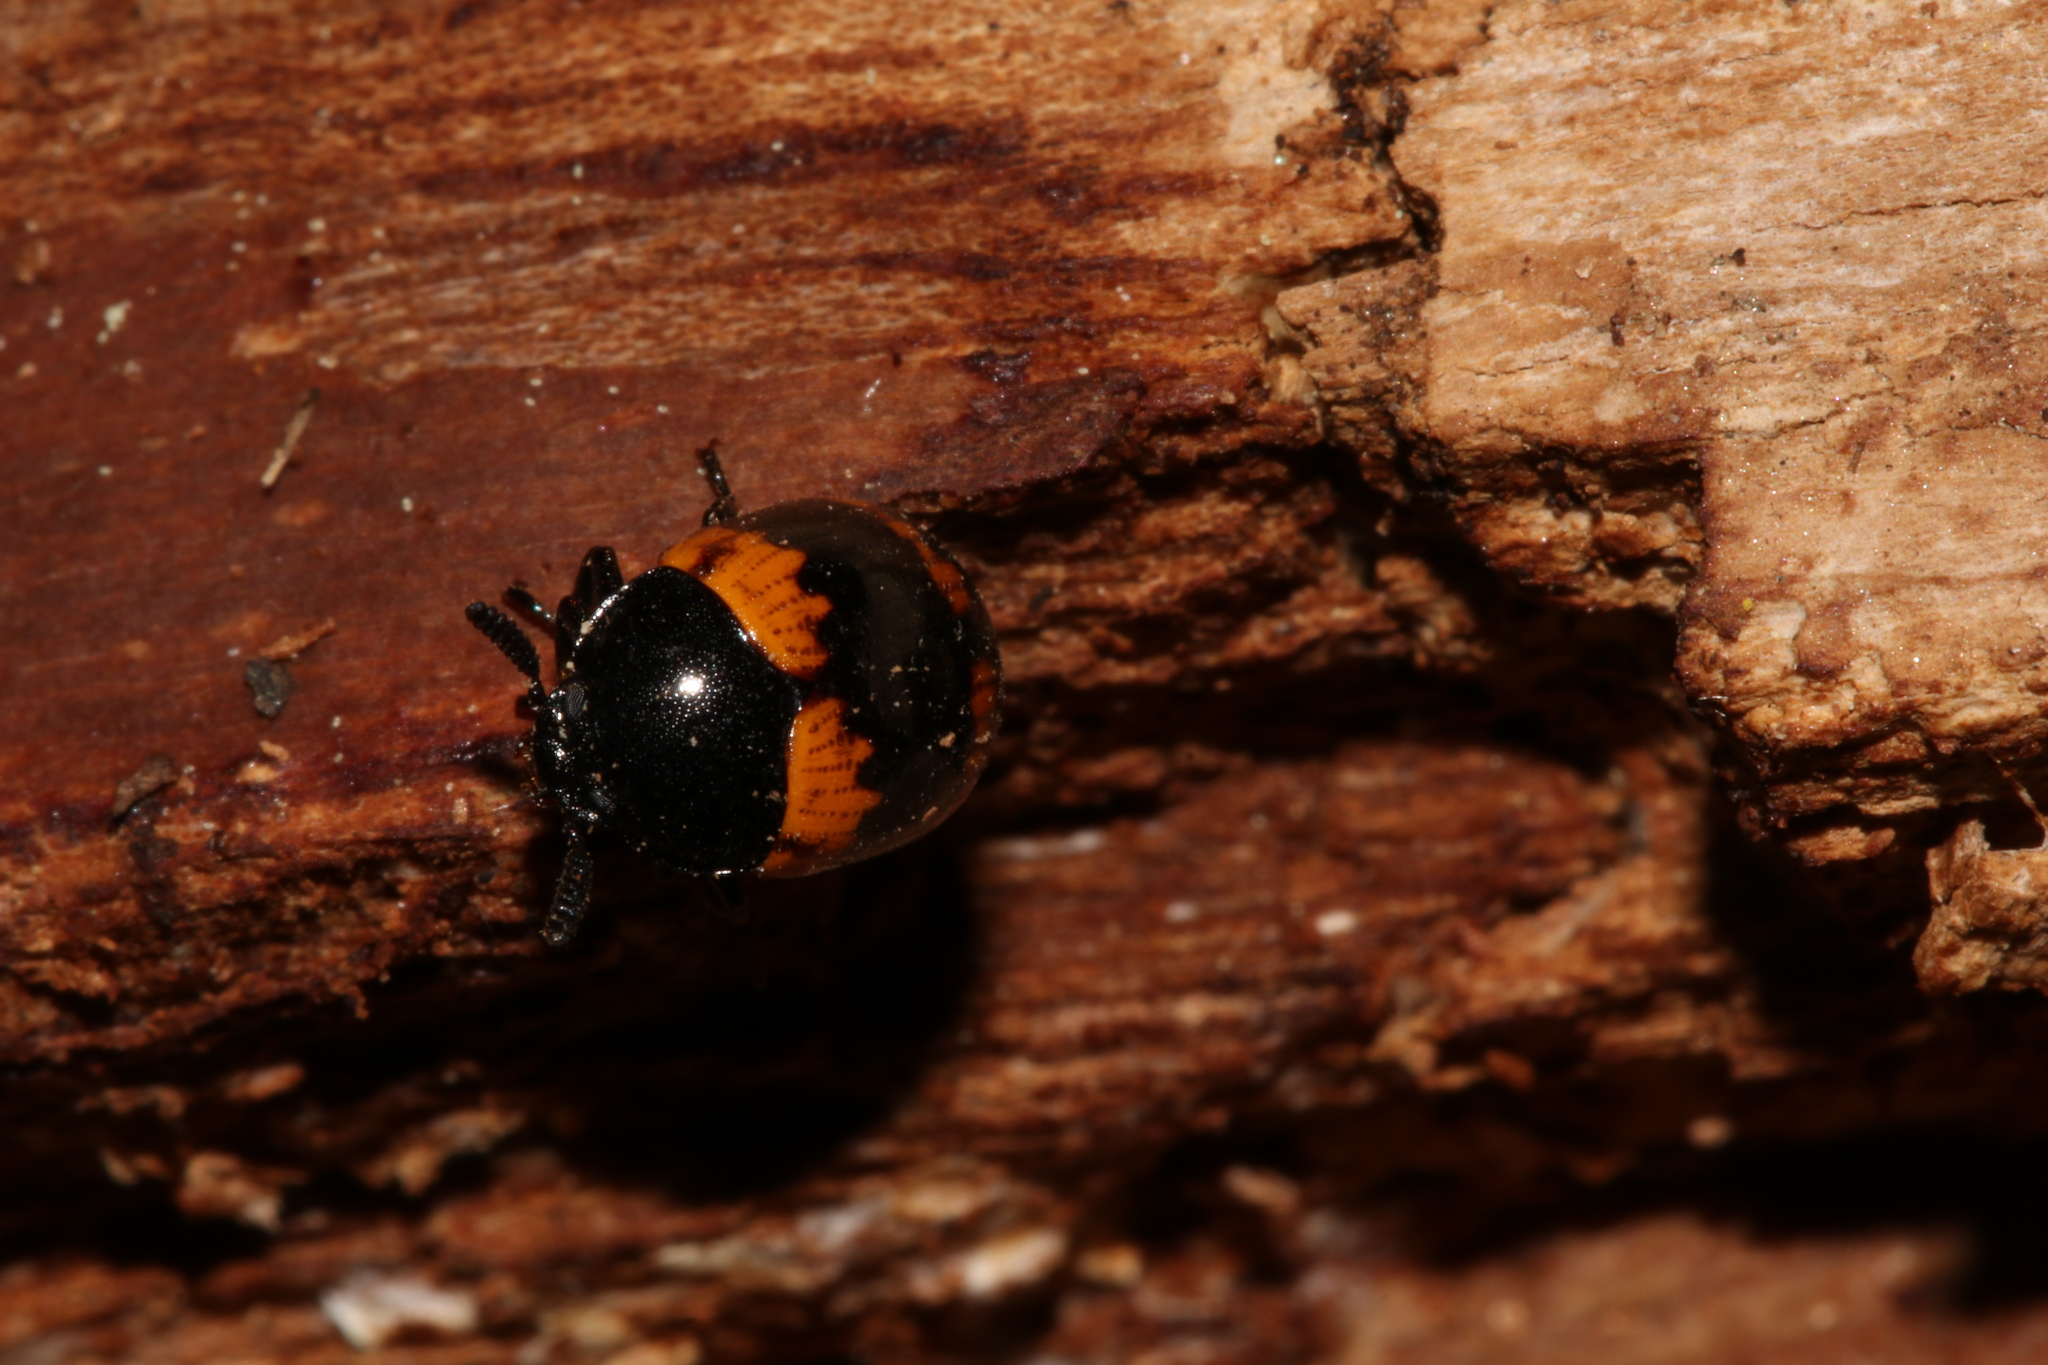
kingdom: Animalia
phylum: Arthropoda
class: Insecta
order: Coleoptera
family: Tenebrionidae
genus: Diaperis
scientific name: Diaperis boleti
